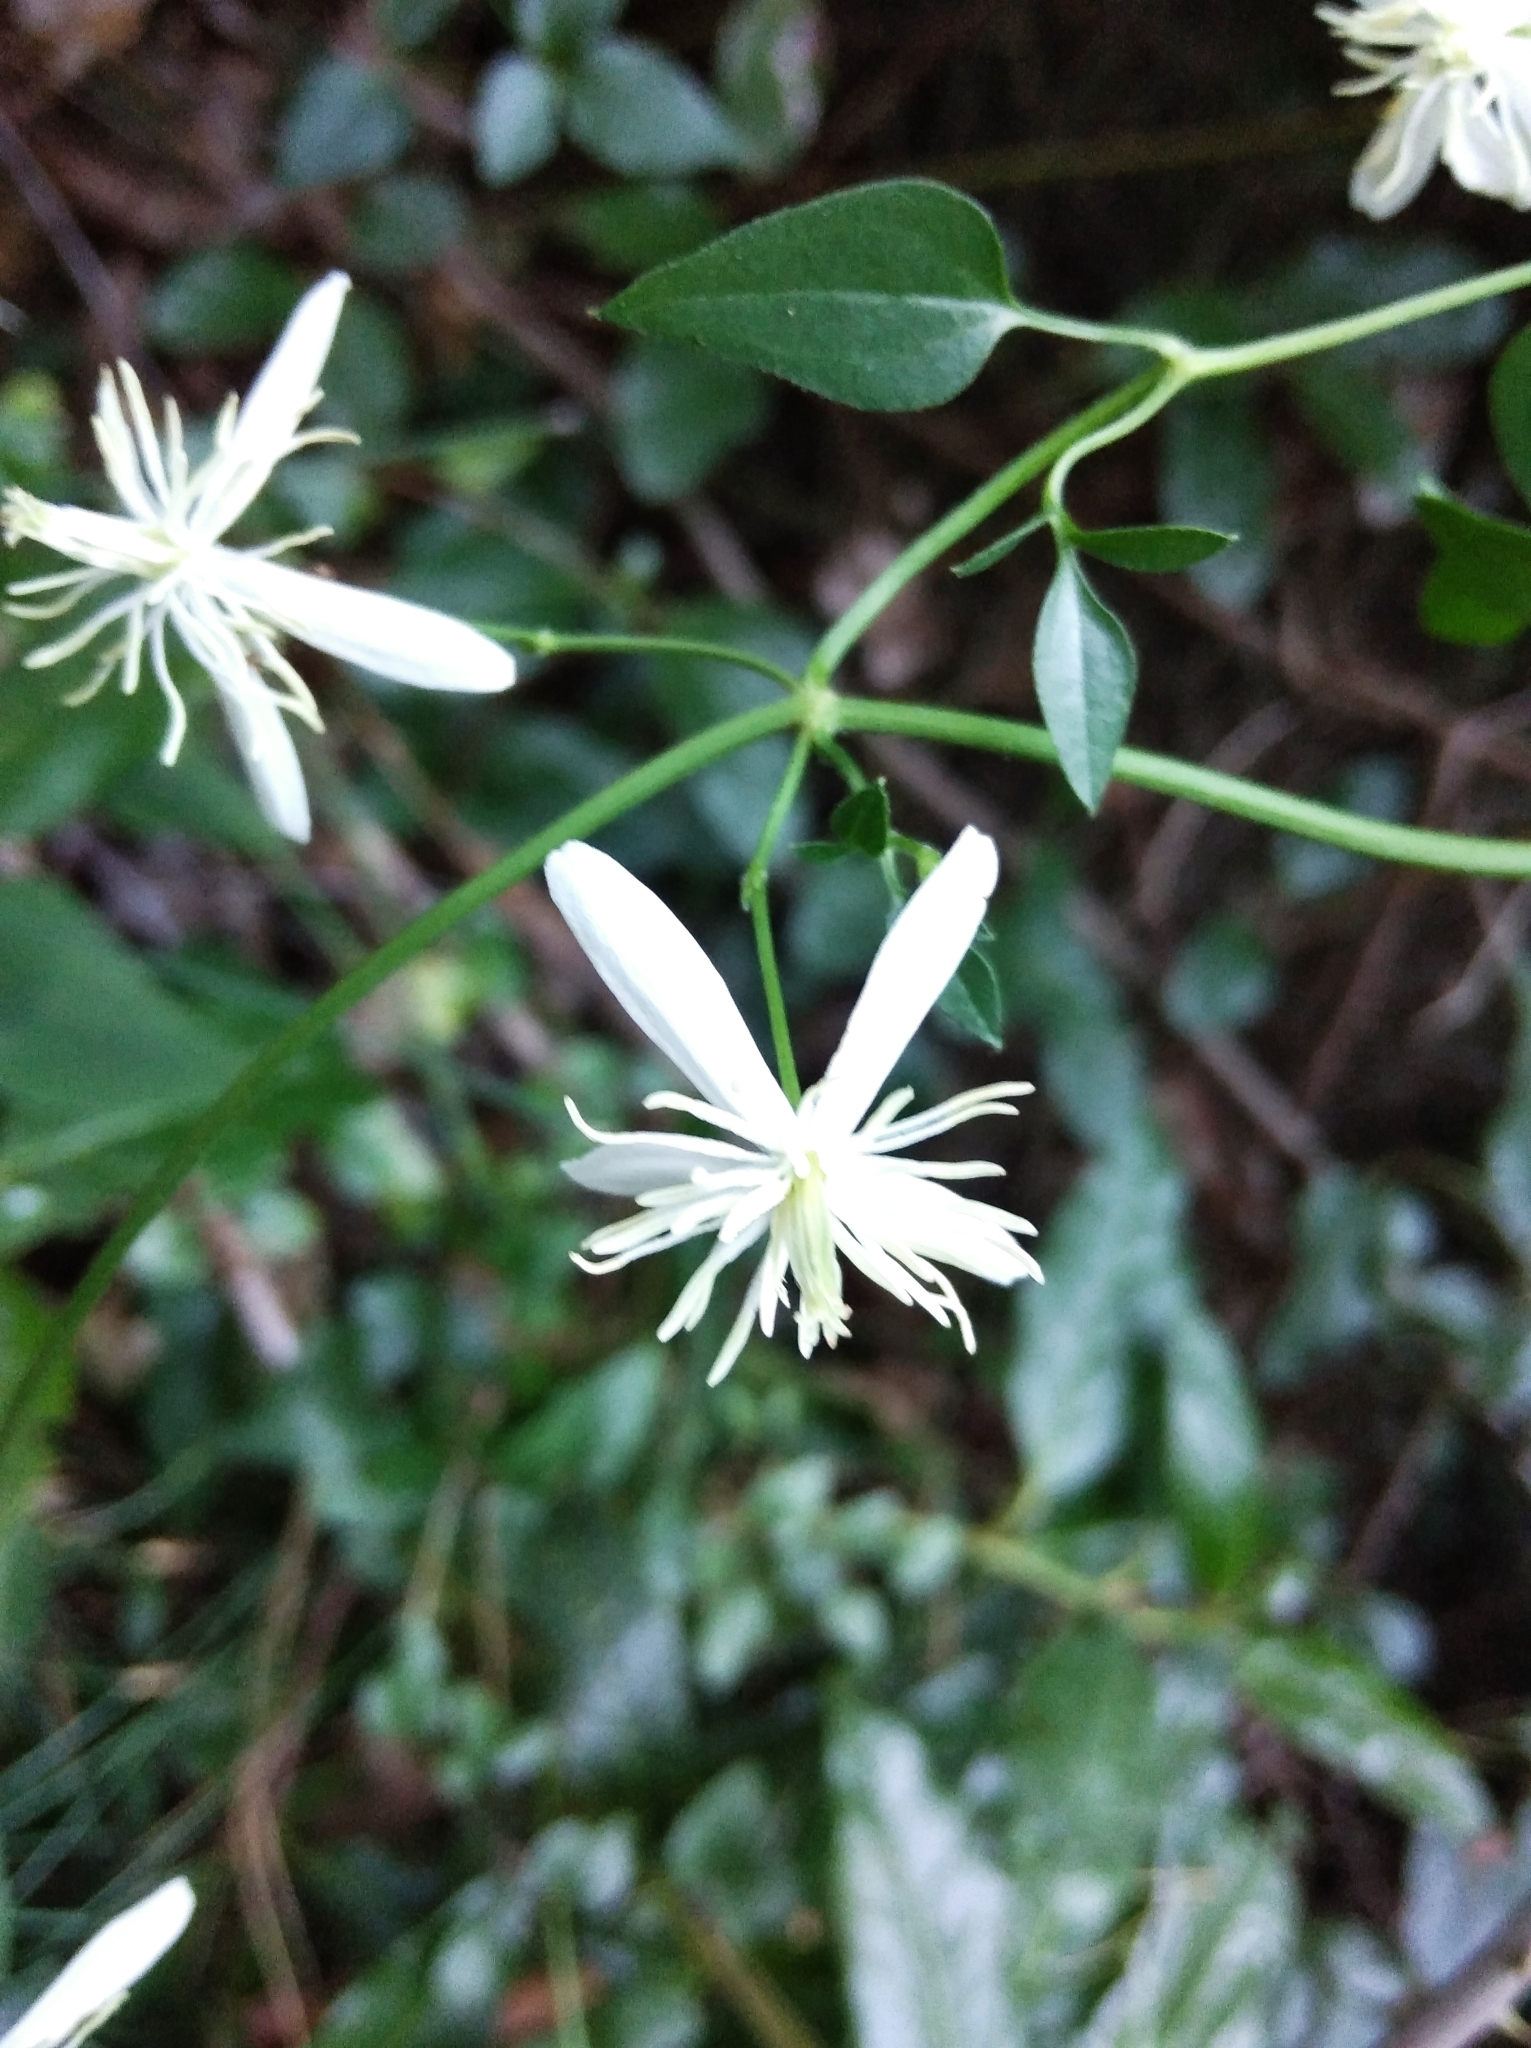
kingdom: Plantae
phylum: Tracheophyta
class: Magnoliopsida
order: Ranunculales
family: Ranunculaceae
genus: Clematis
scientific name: Clematis flammula
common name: Virgin's-bower
